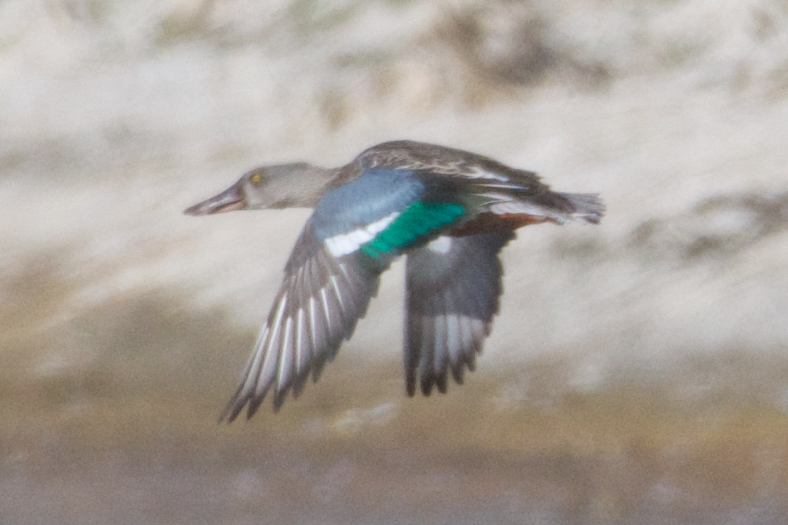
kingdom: Animalia
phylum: Chordata
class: Aves
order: Anseriformes
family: Anatidae
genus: Spatula
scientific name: Spatula clypeata
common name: Northern shoveler
